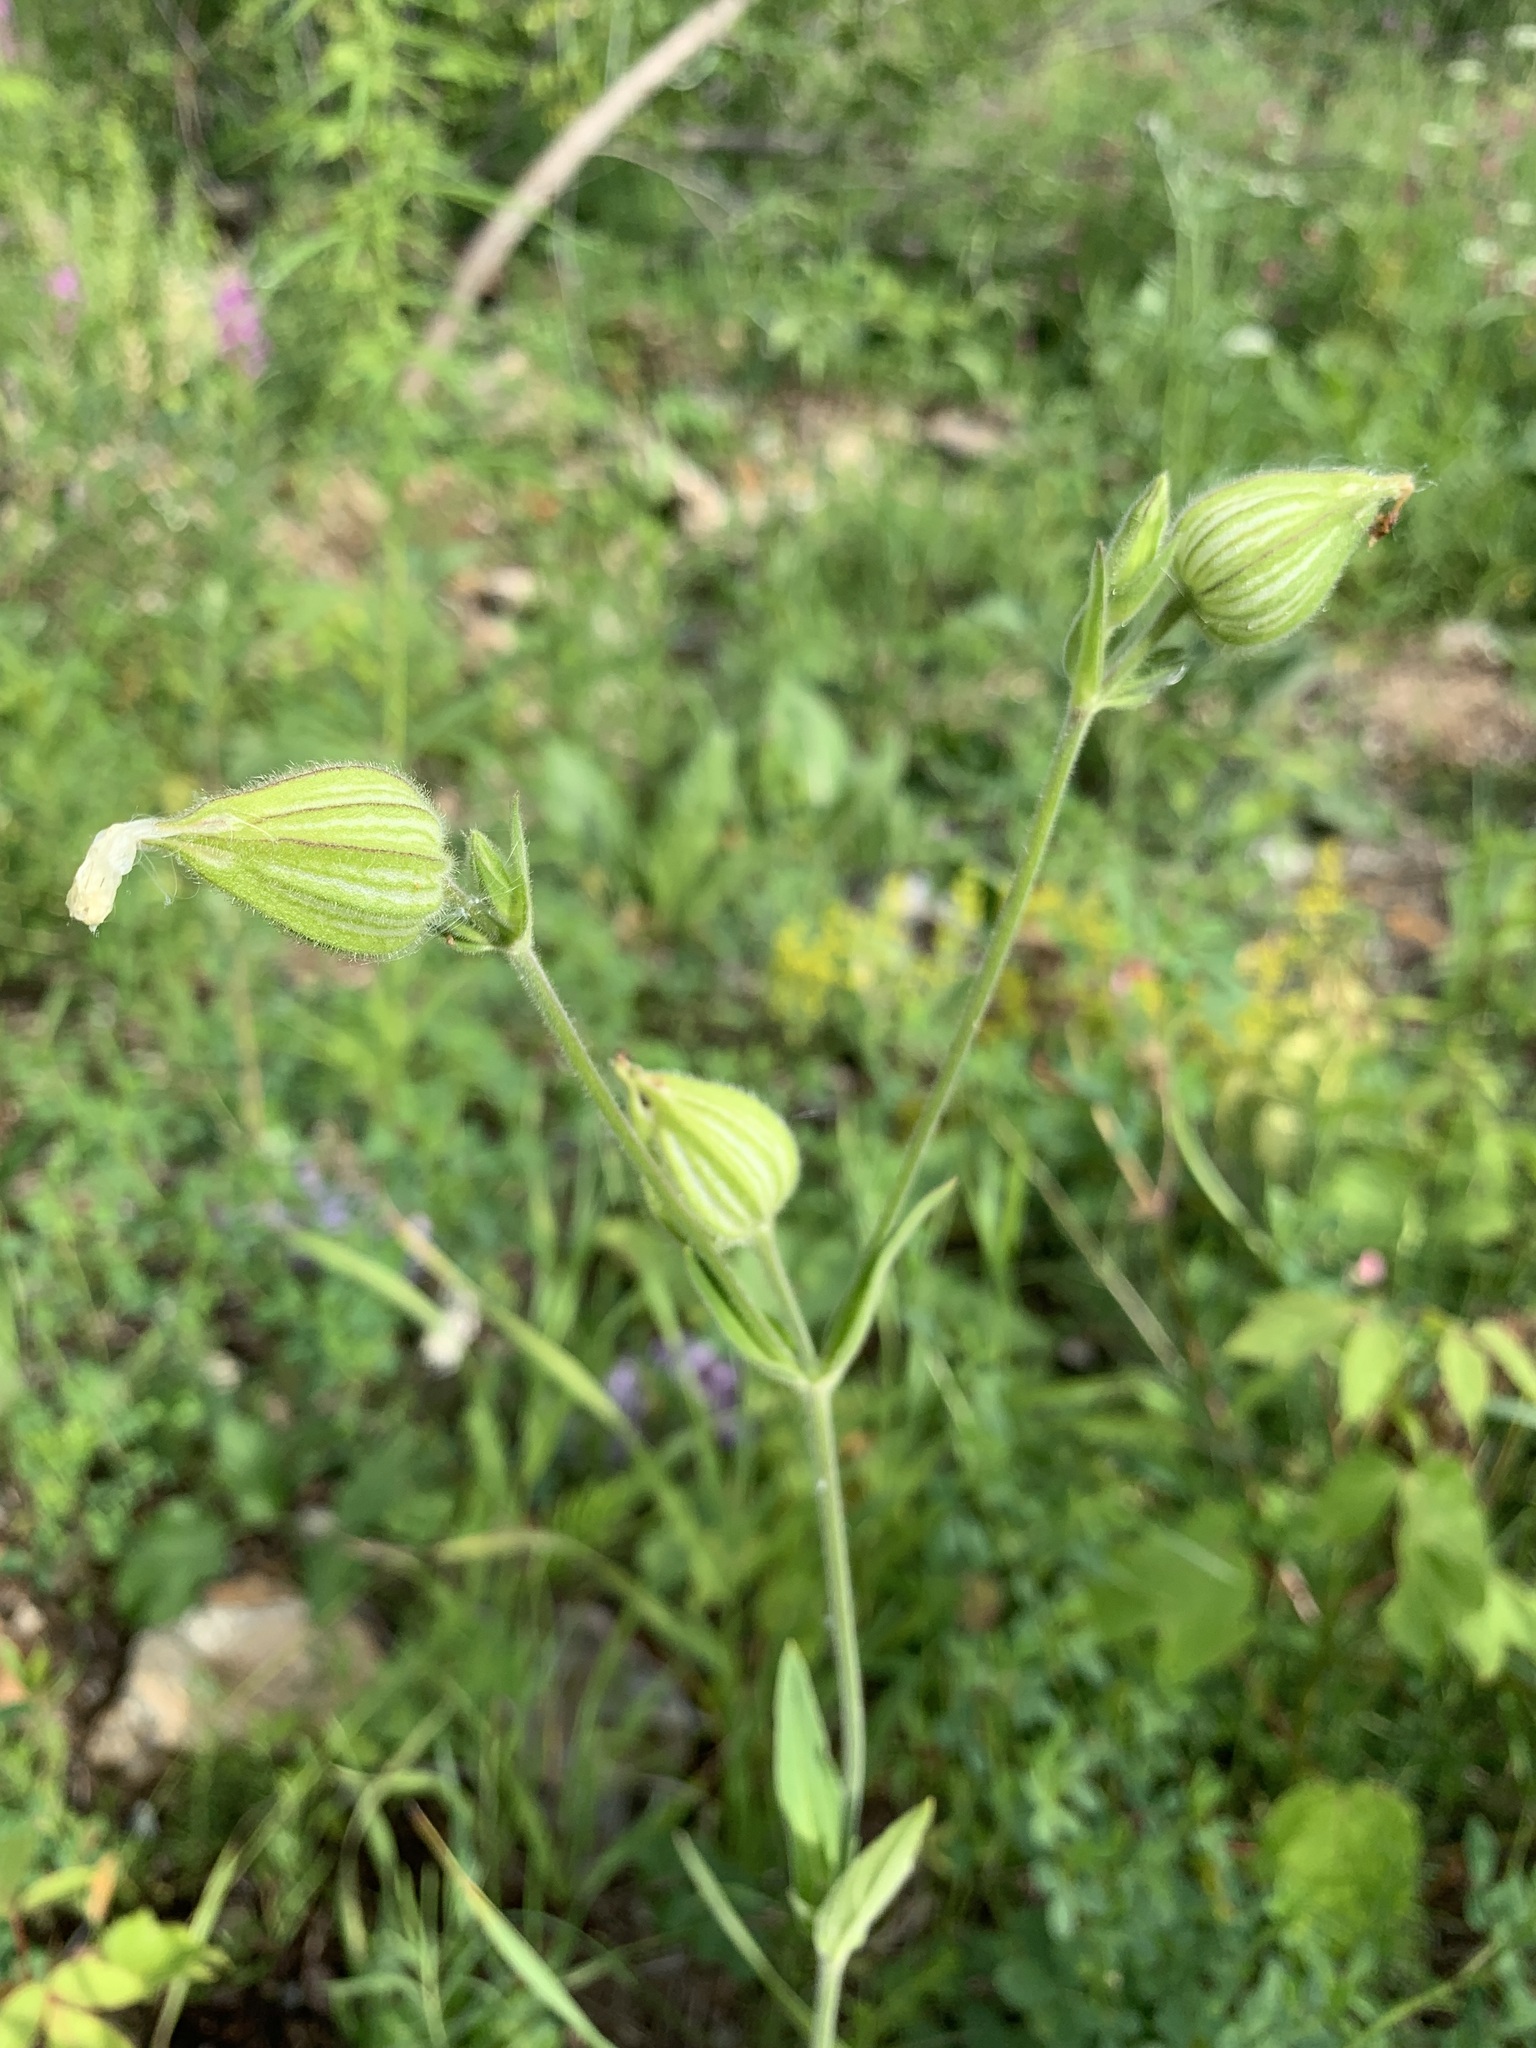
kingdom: Plantae
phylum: Tracheophyta
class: Magnoliopsida
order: Caryophyllales
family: Caryophyllaceae
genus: Silene
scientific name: Silene latifolia
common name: White campion
